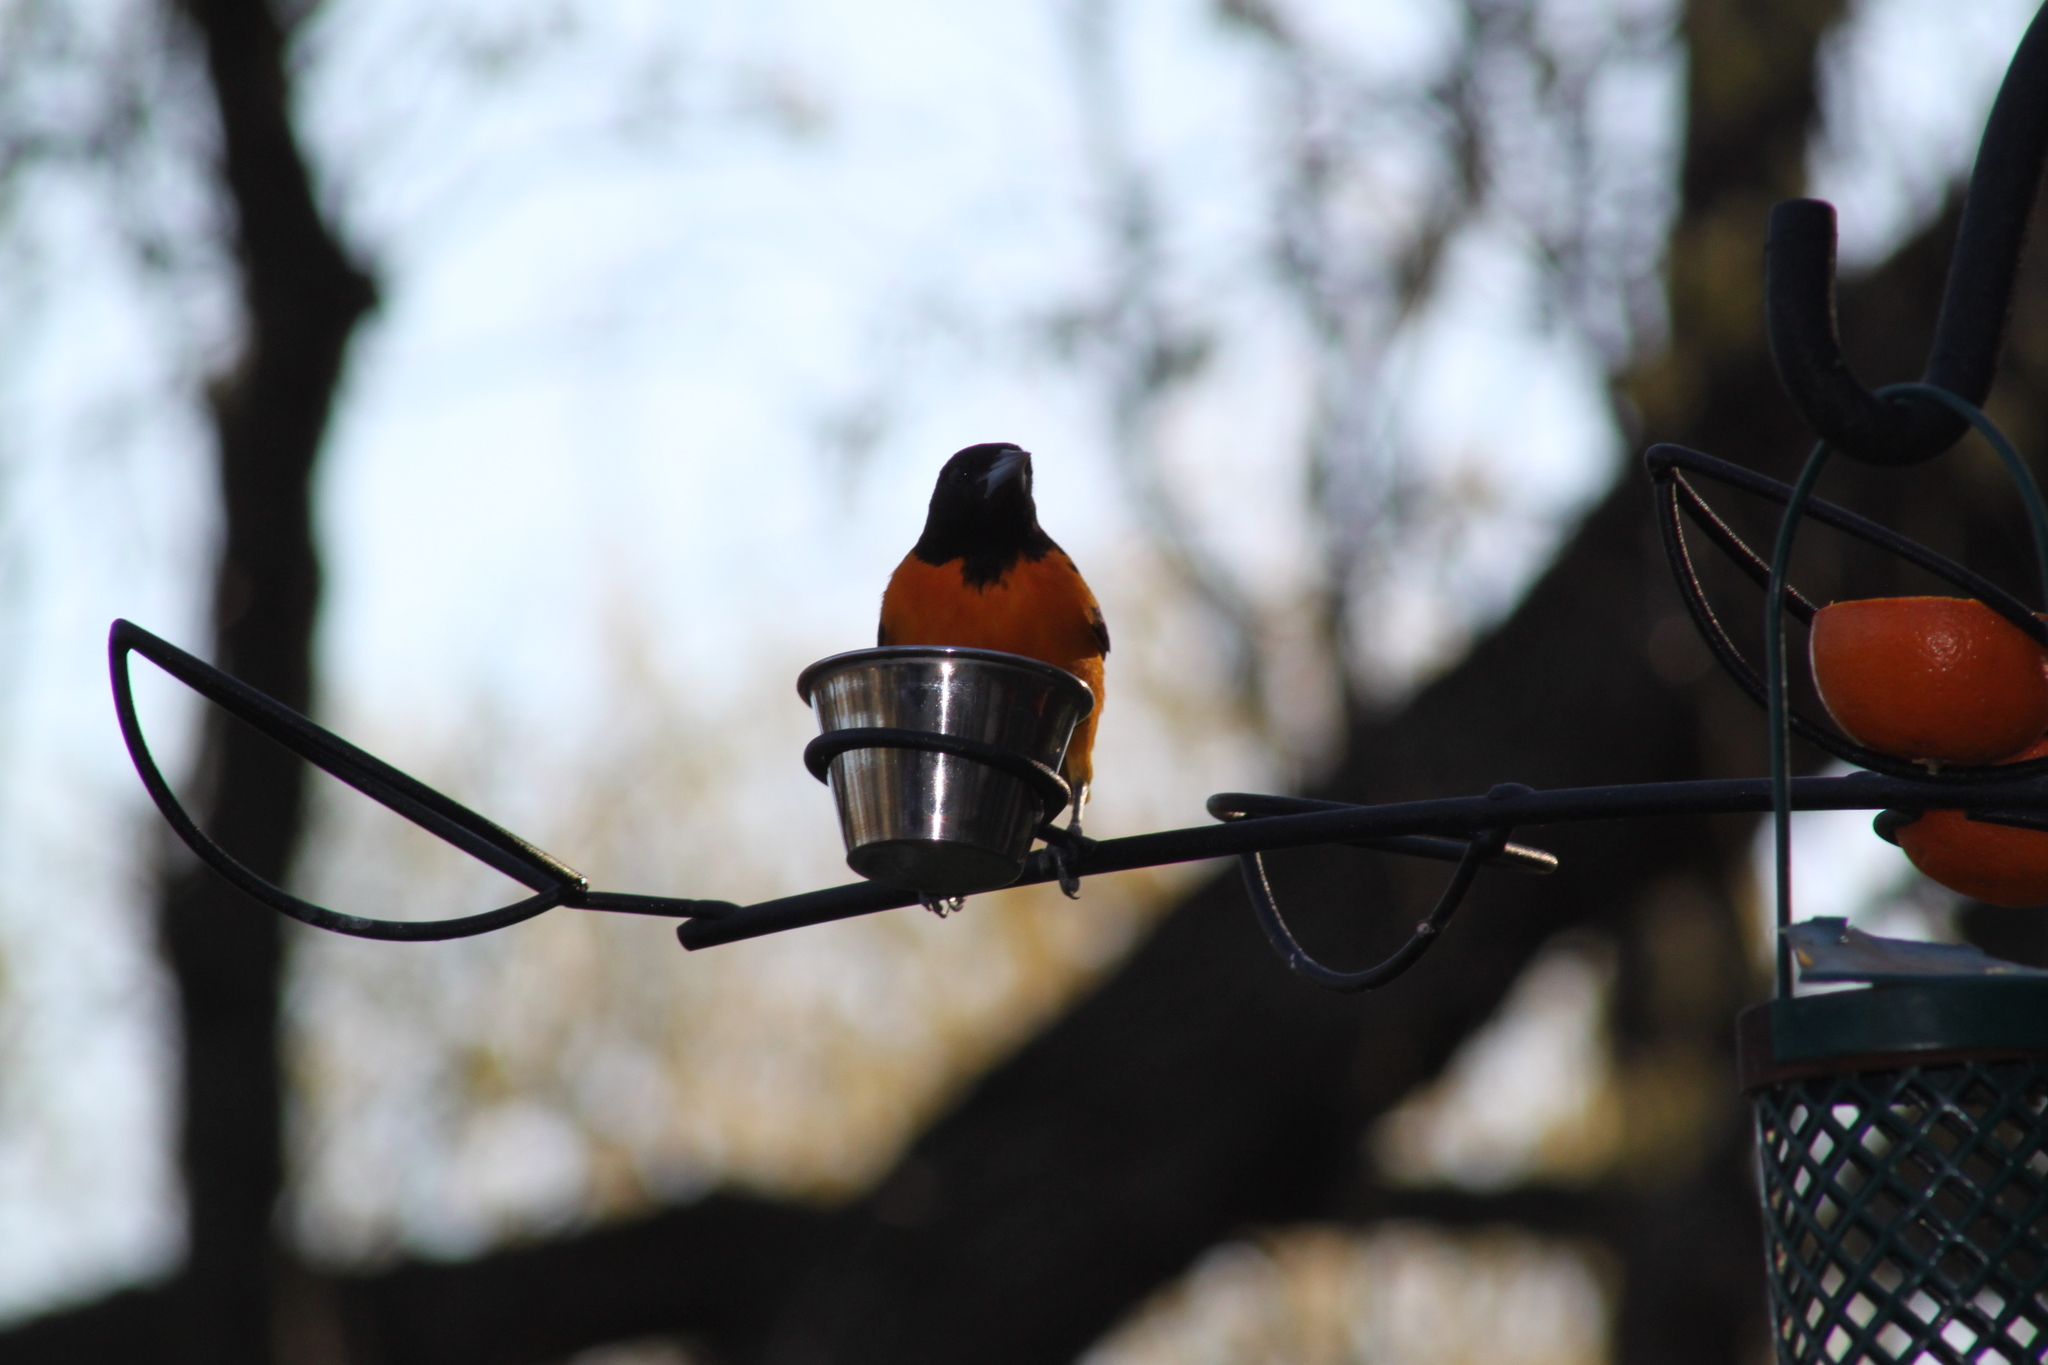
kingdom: Animalia
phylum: Chordata
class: Aves
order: Passeriformes
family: Icteridae
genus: Icterus
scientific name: Icterus galbula
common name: Baltimore oriole
